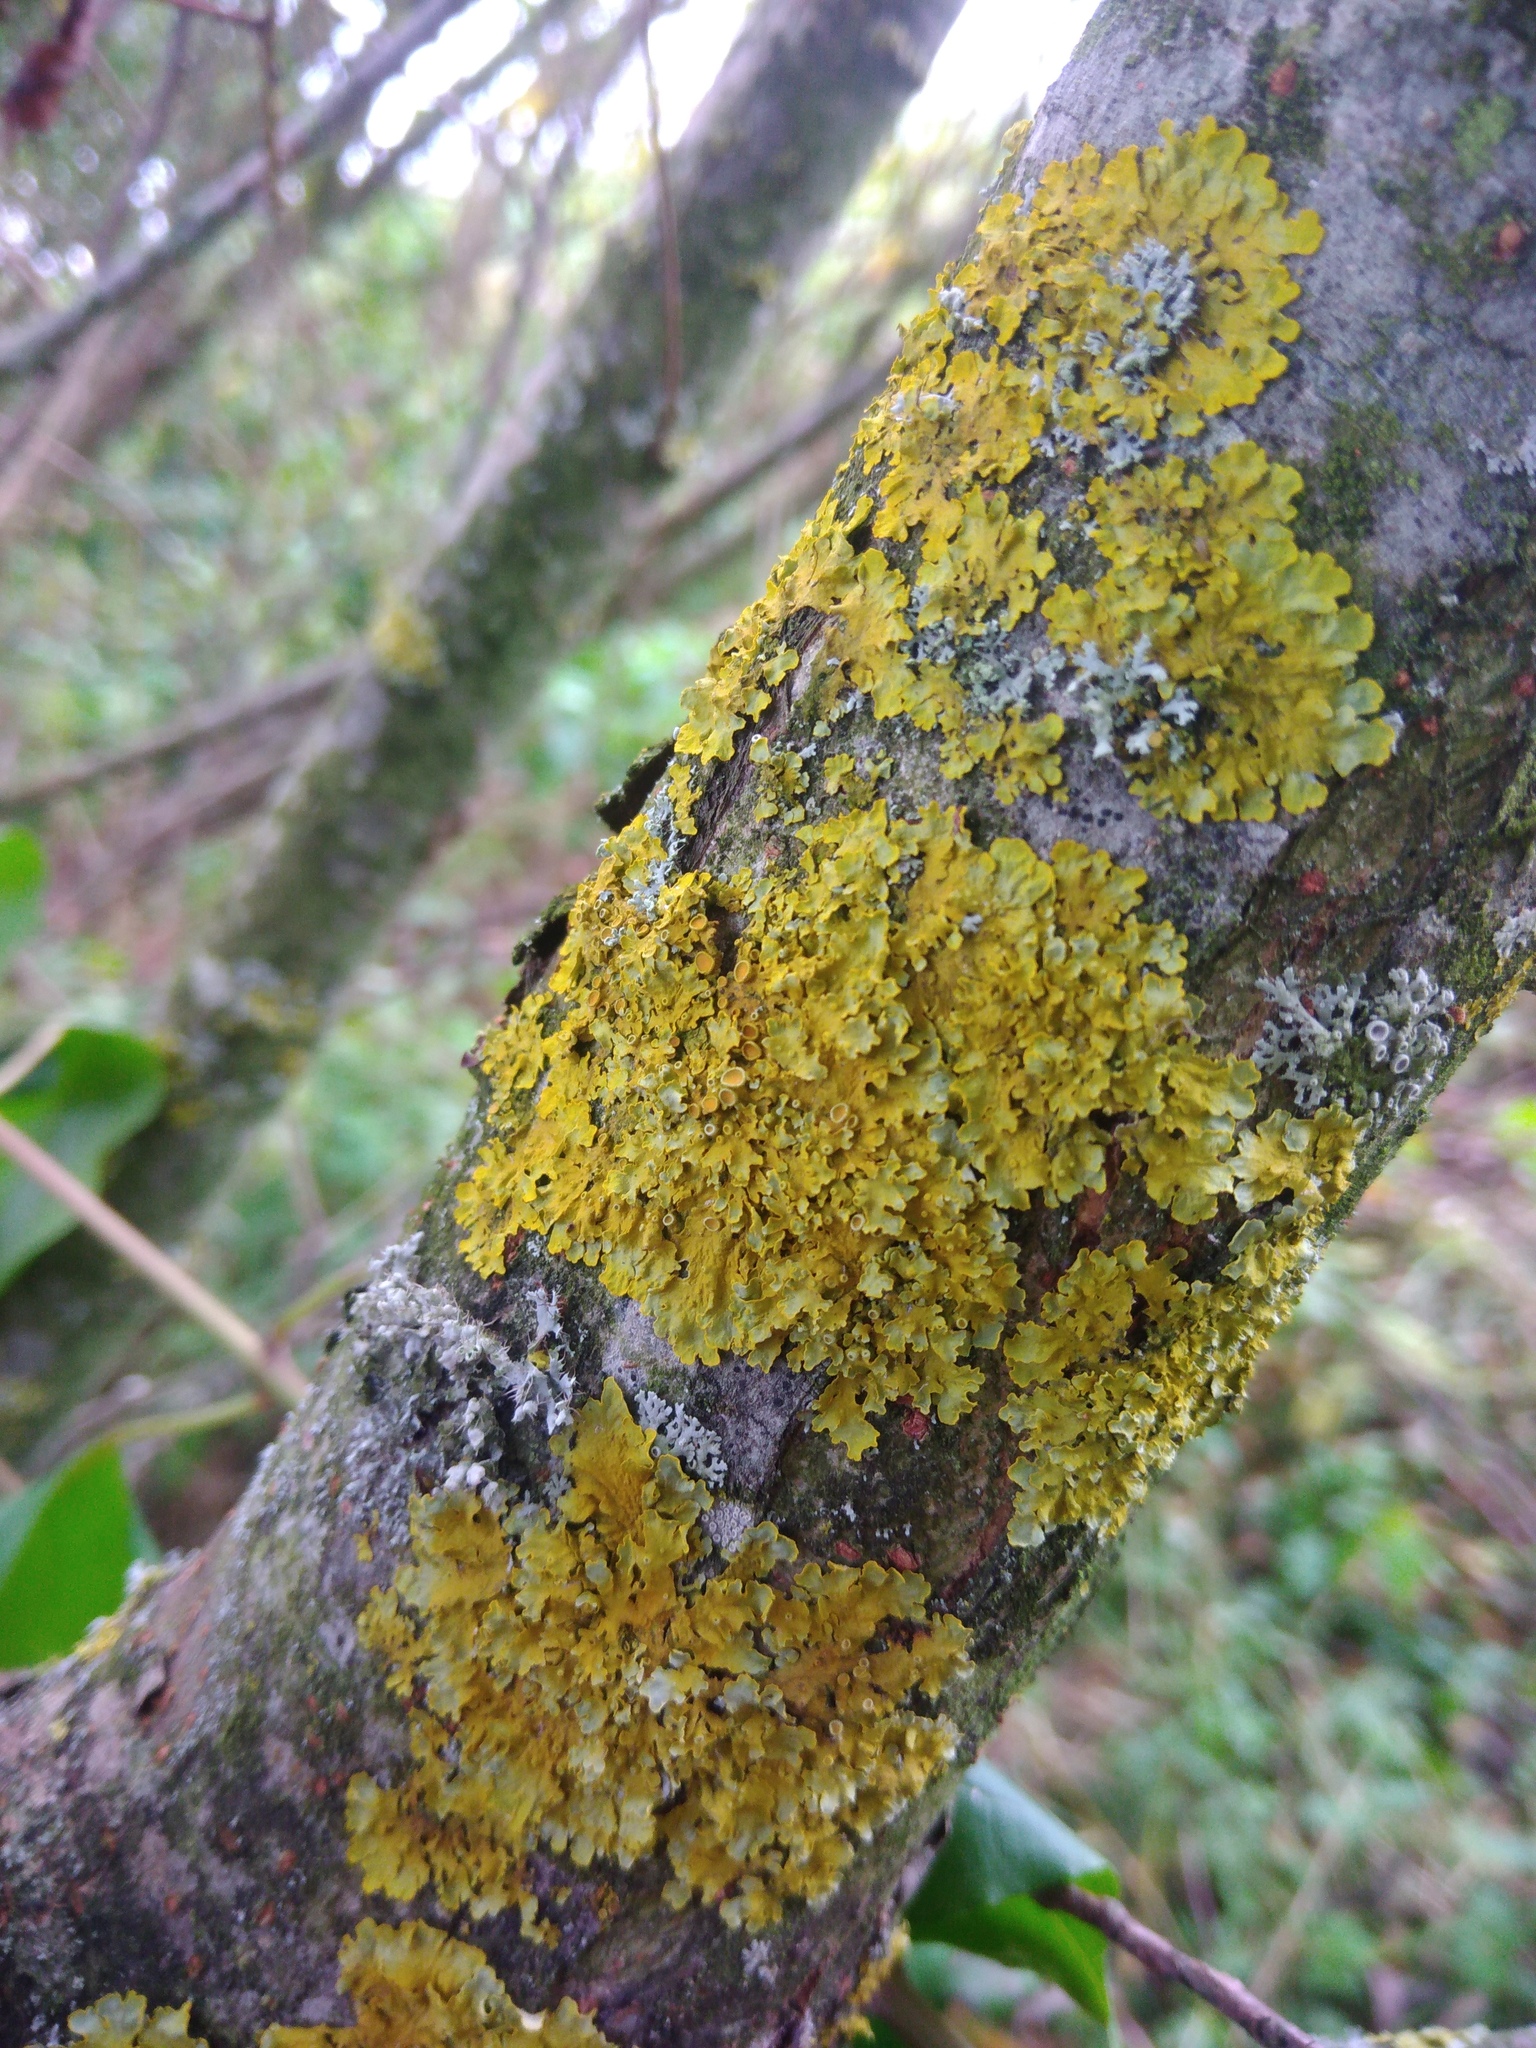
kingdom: Fungi
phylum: Ascomycota
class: Lecanoromycetes
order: Teloschistales
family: Teloschistaceae
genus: Xanthoria
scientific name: Xanthoria parietina
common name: Common orange lichen
